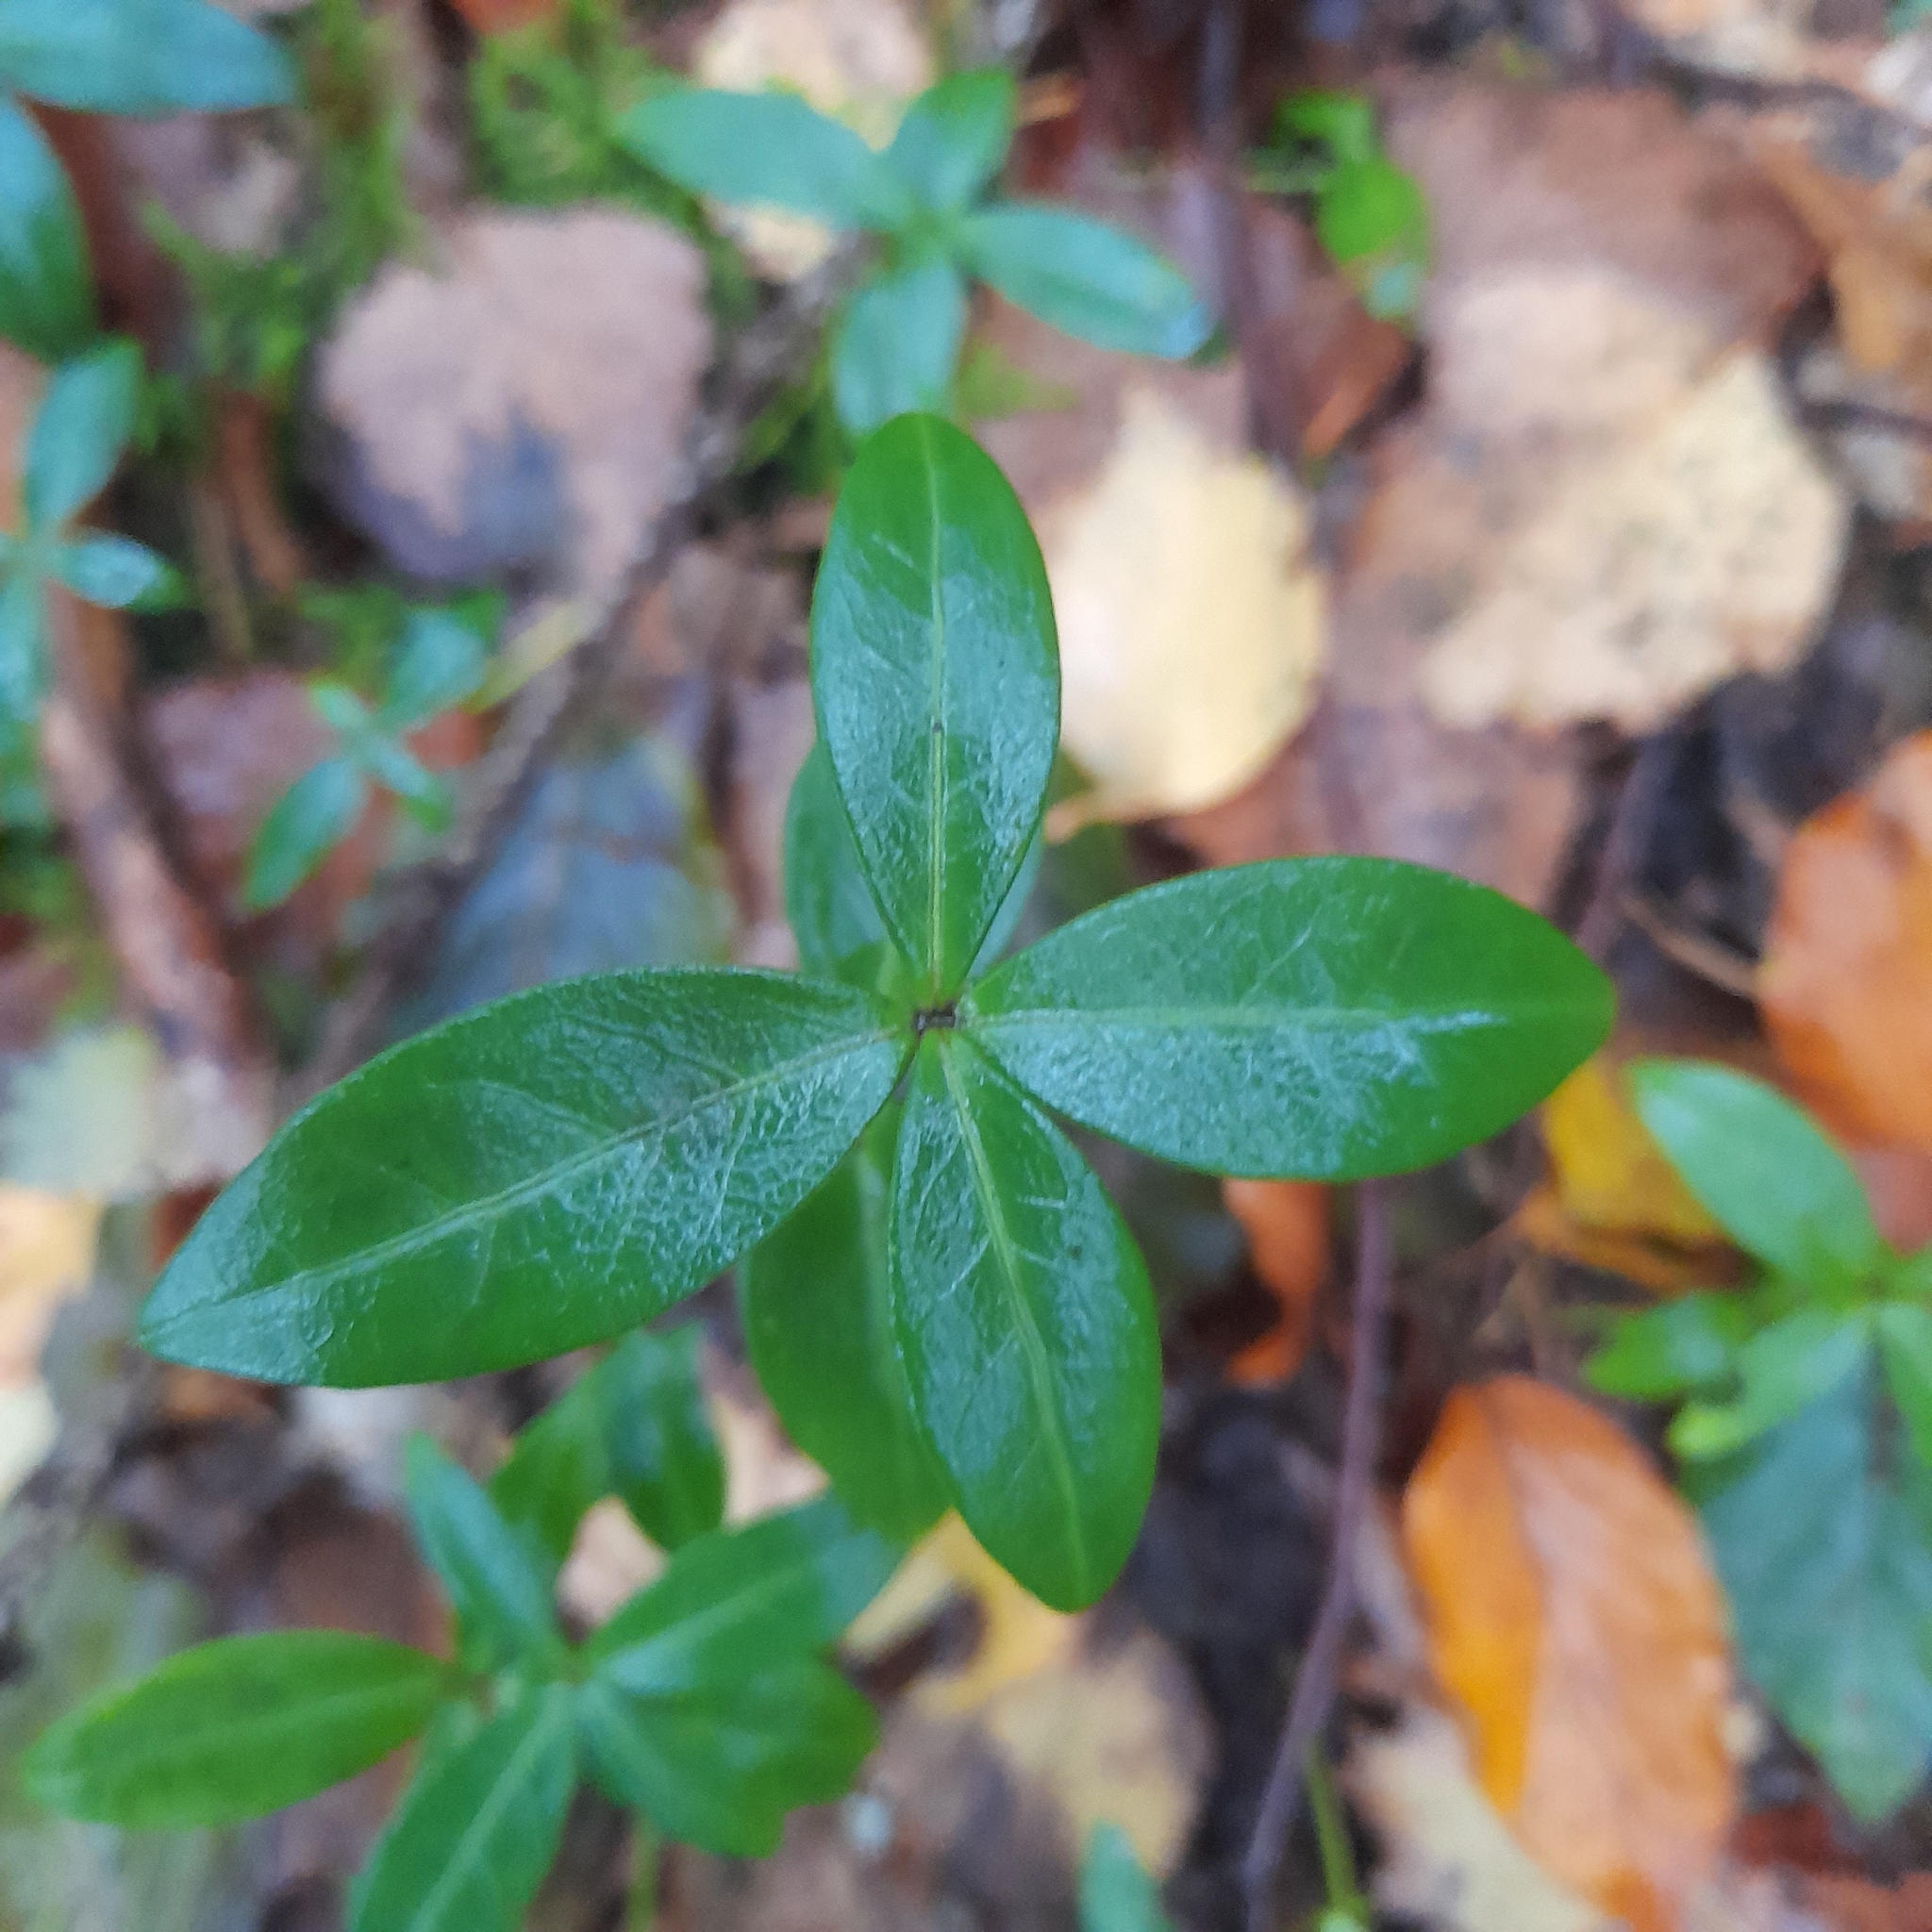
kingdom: Plantae
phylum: Tracheophyta
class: Magnoliopsida
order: Gentianales
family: Apocynaceae
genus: Vinca
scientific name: Vinca minor
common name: Lesser periwinkle
